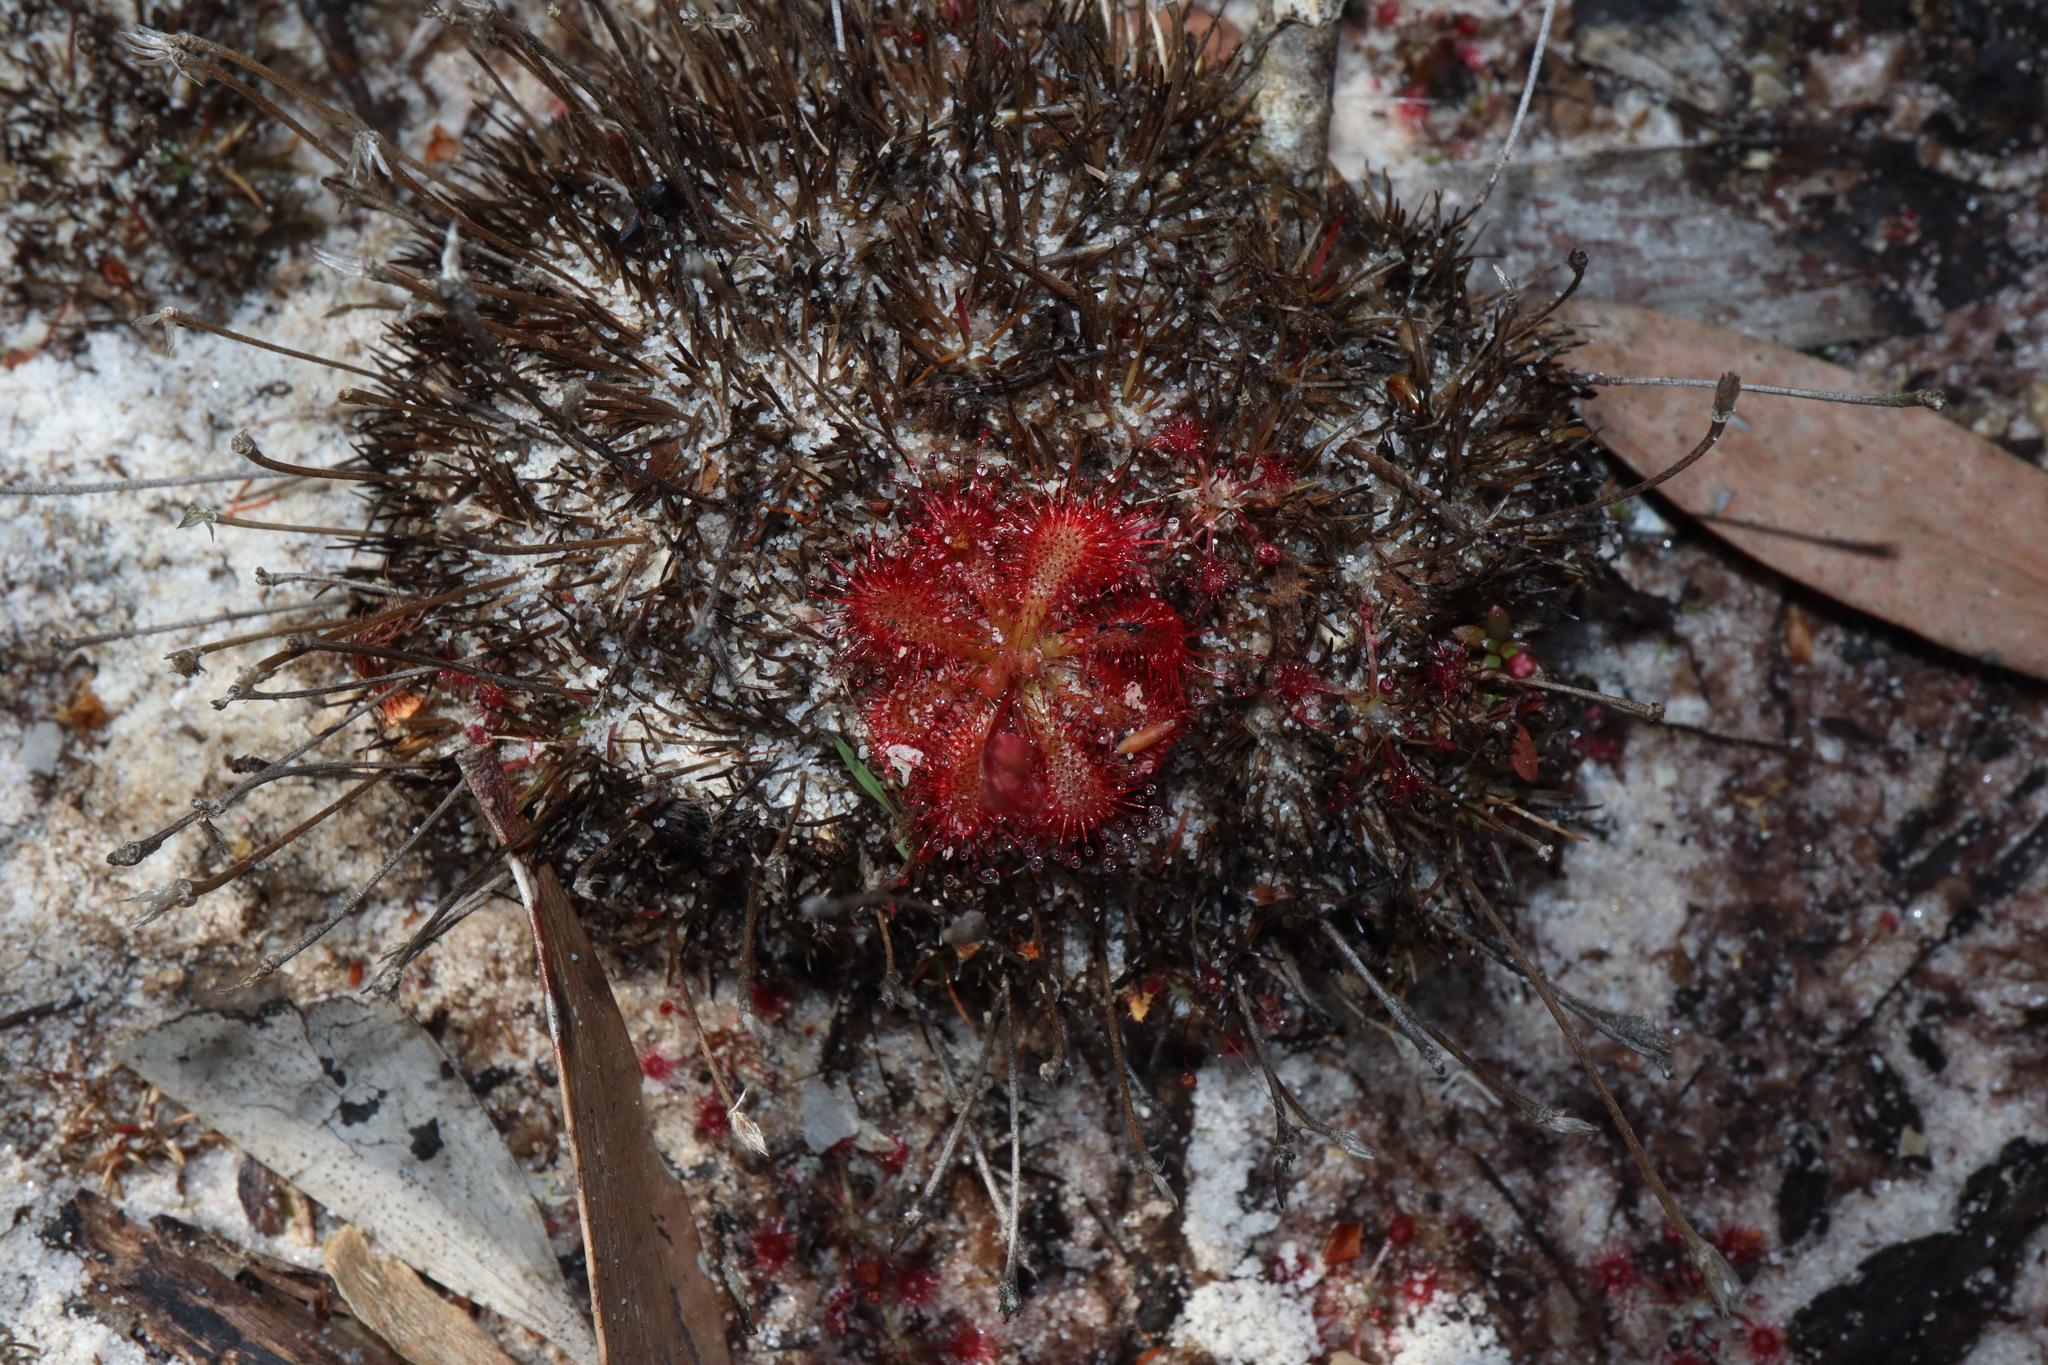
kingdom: Plantae
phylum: Tracheophyta
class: Magnoliopsida
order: Caryophyllales
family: Droseraceae
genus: Drosera
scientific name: Drosera spatulata
